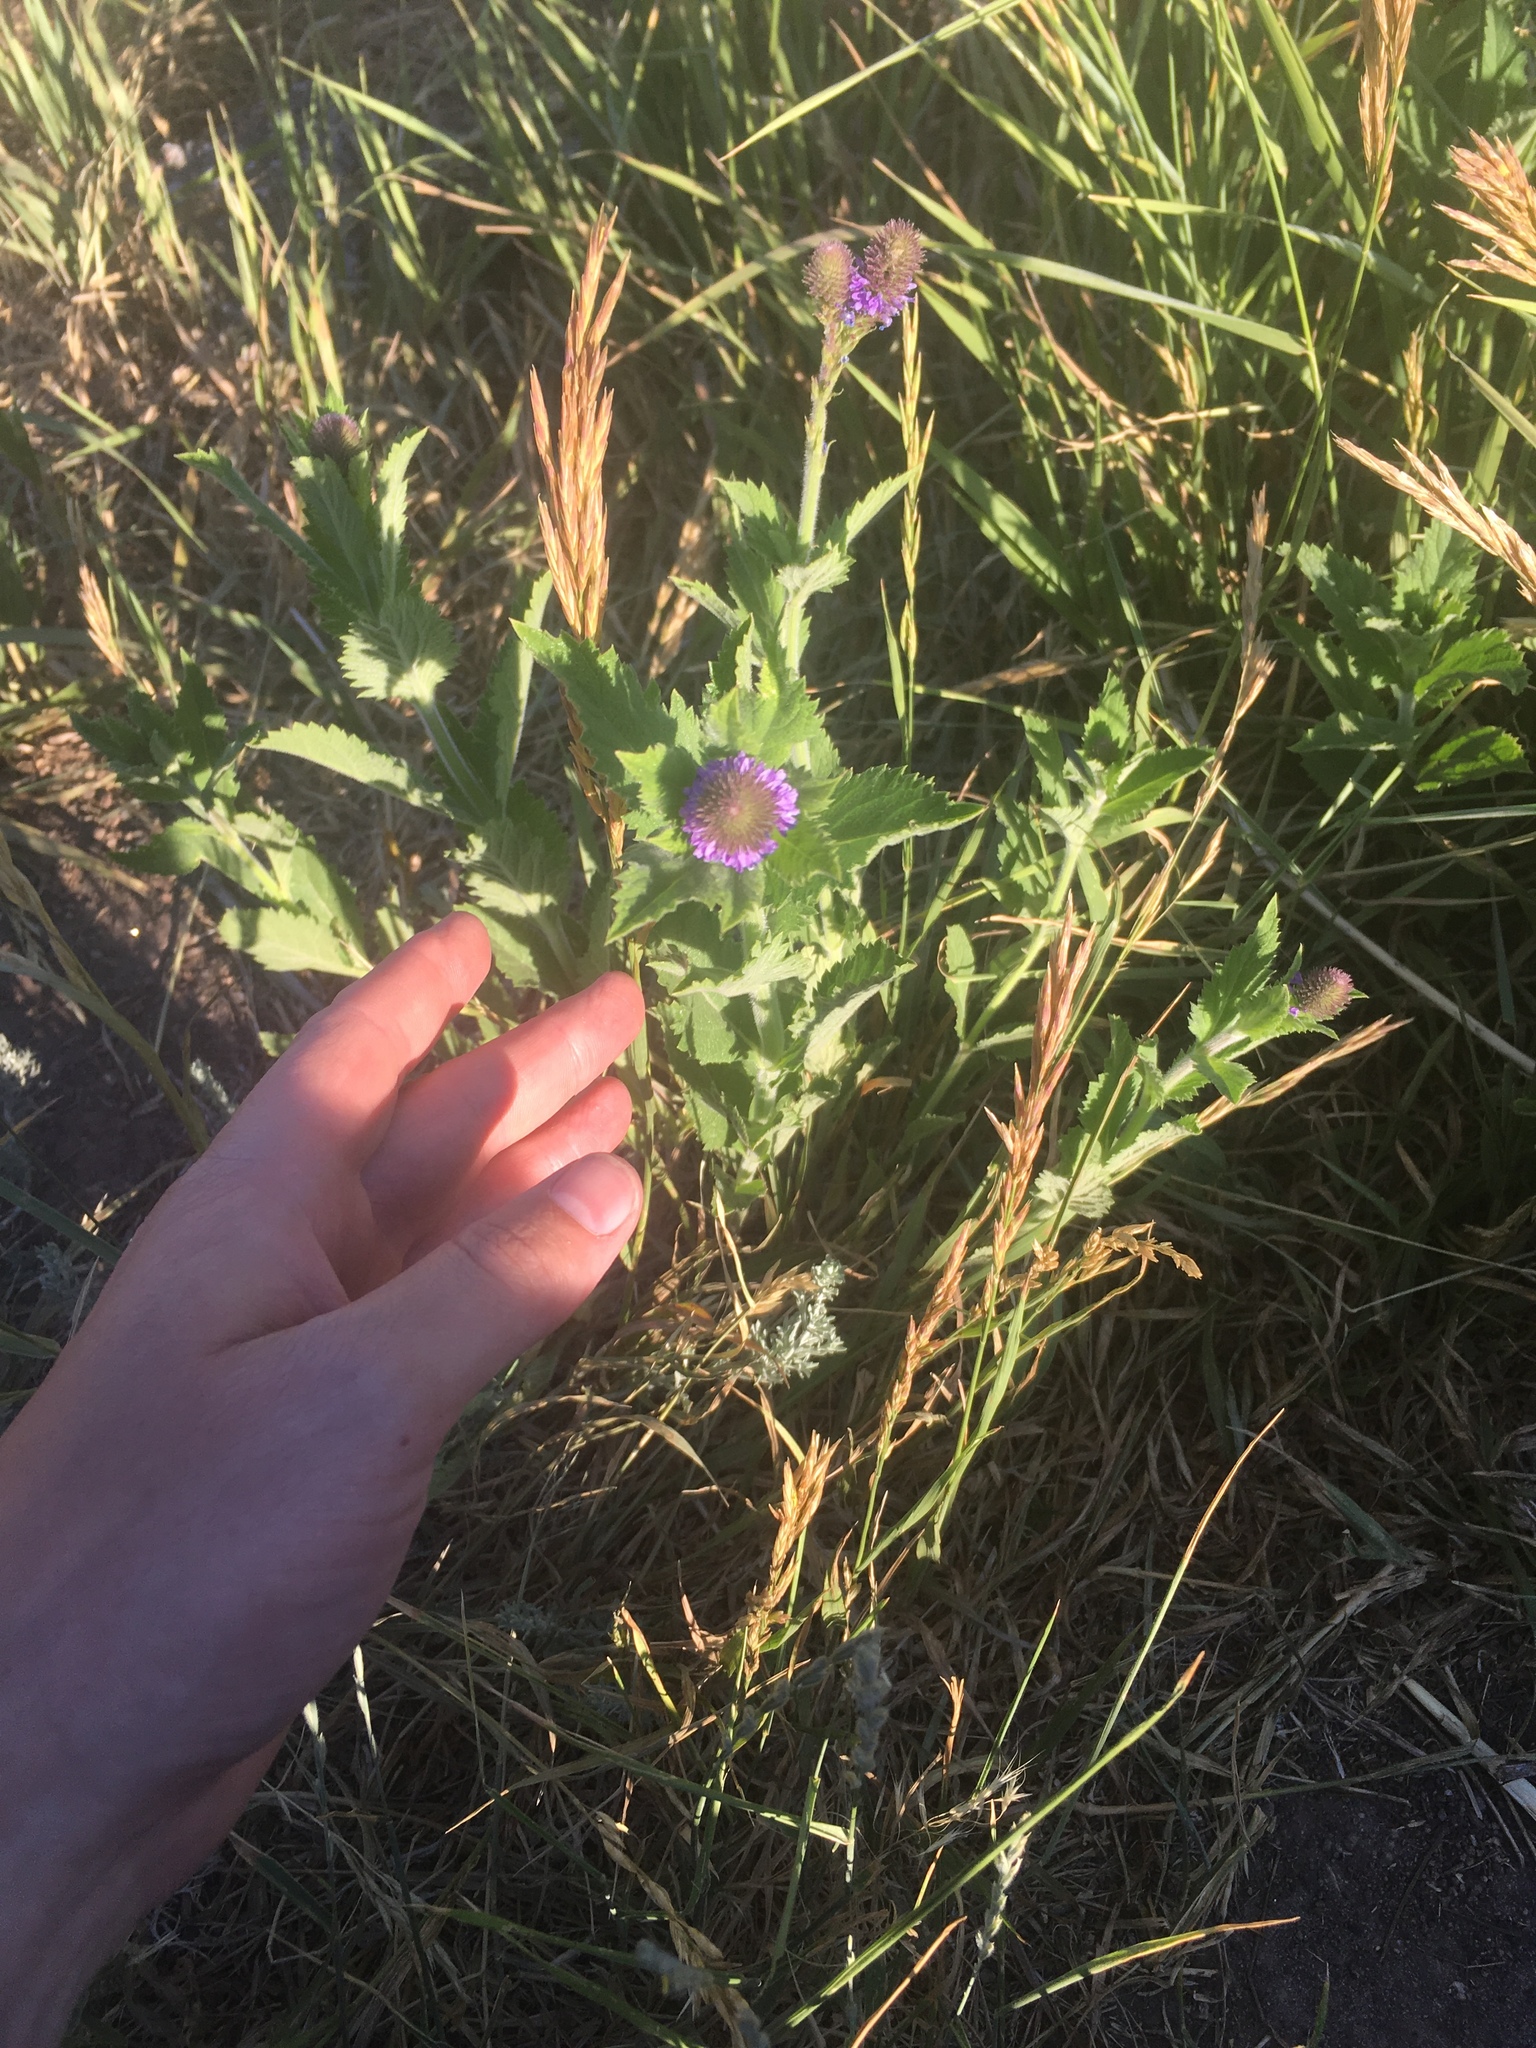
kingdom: Plantae
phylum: Tracheophyta
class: Magnoliopsida
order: Lamiales
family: Verbenaceae
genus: Verbena
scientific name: Verbena macdougalii
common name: New mexico vervain
